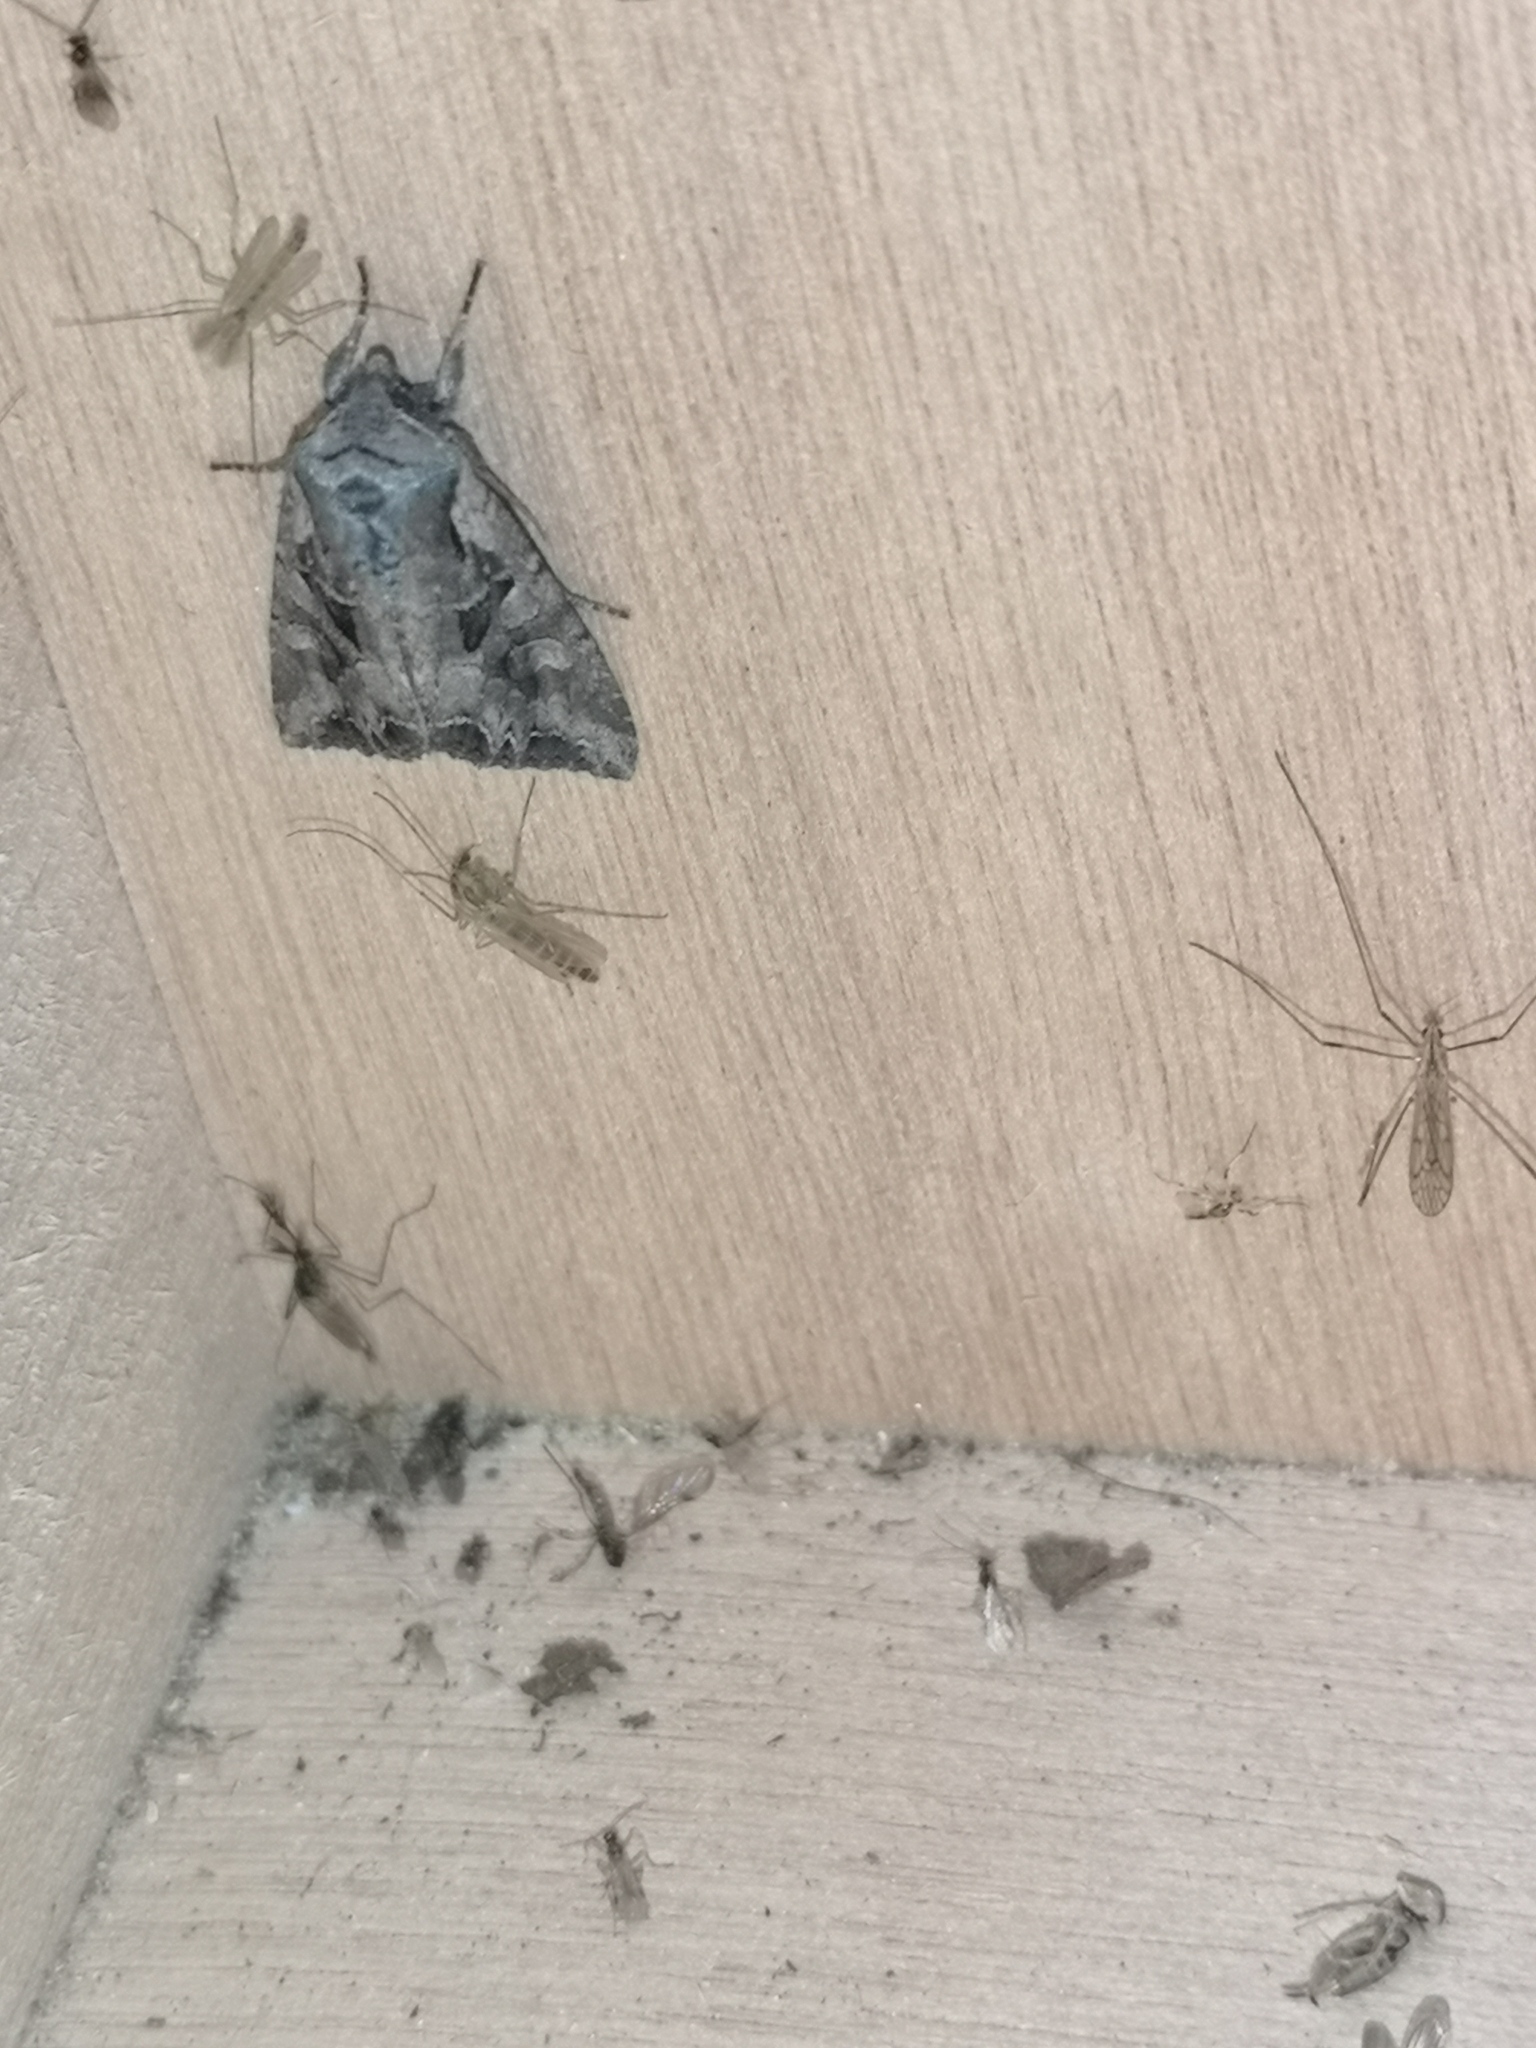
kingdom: Animalia
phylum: Arthropoda
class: Insecta
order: Lepidoptera
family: Noctuidae
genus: Lacanobia
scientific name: Lacanobia suasa
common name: Dog's tooth
